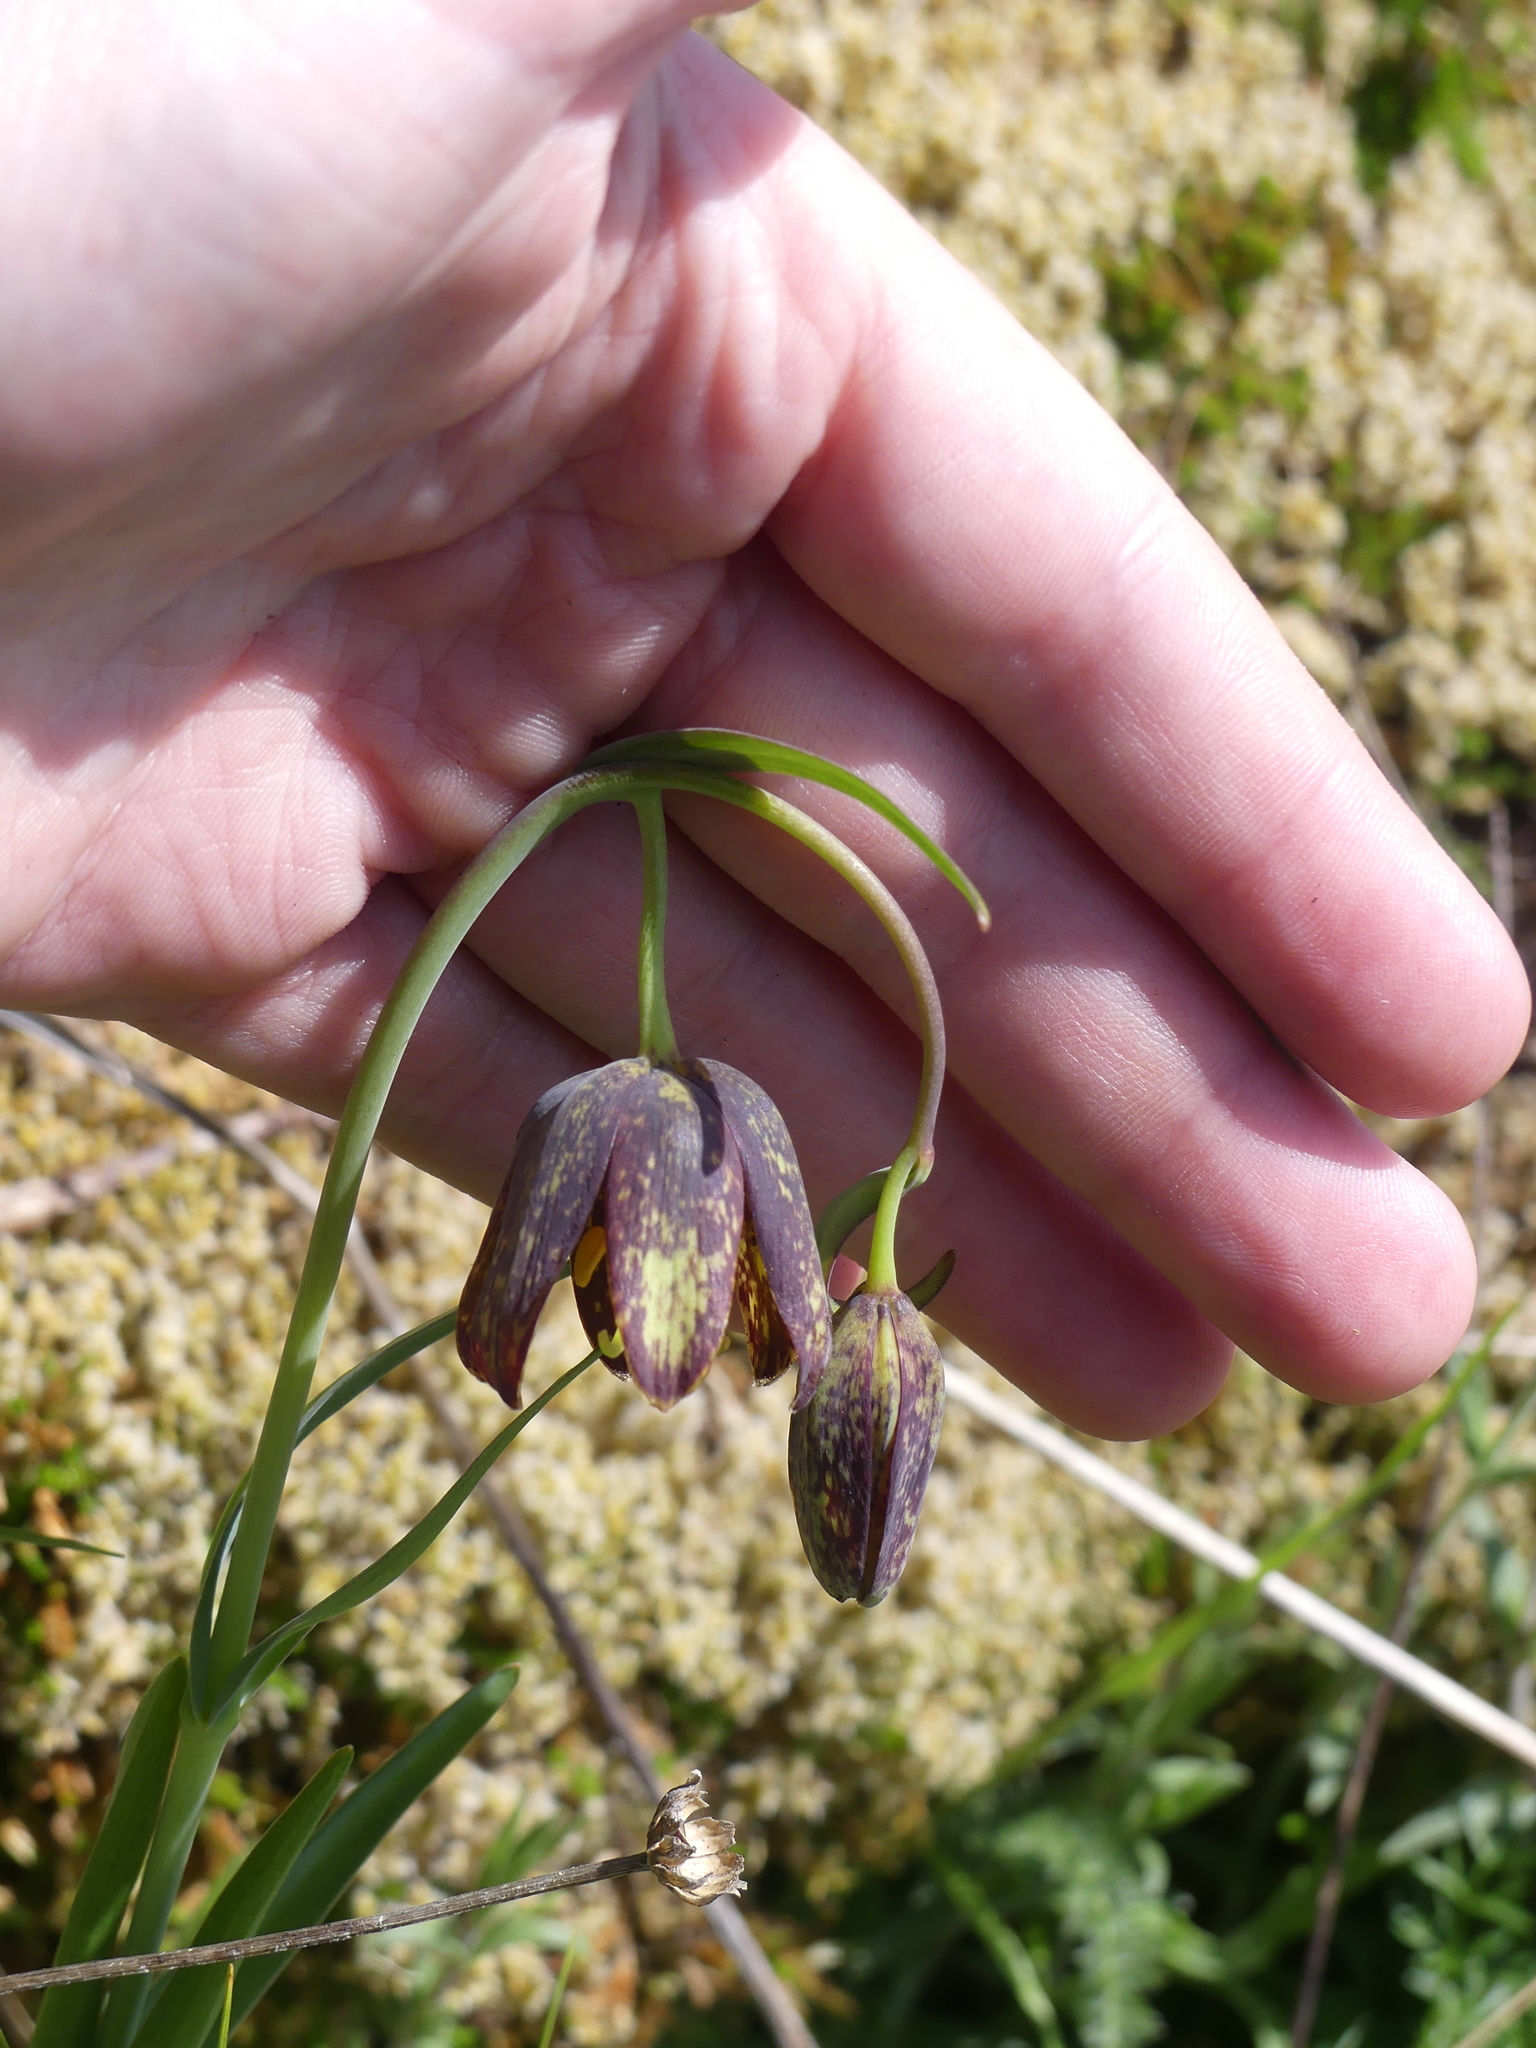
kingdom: Plantae
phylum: Tracheophyta
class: Liliopsida
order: Liliales
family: Liliaceae
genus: Fritillaria
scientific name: Fritillaria affinis
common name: Ojai fritillary
